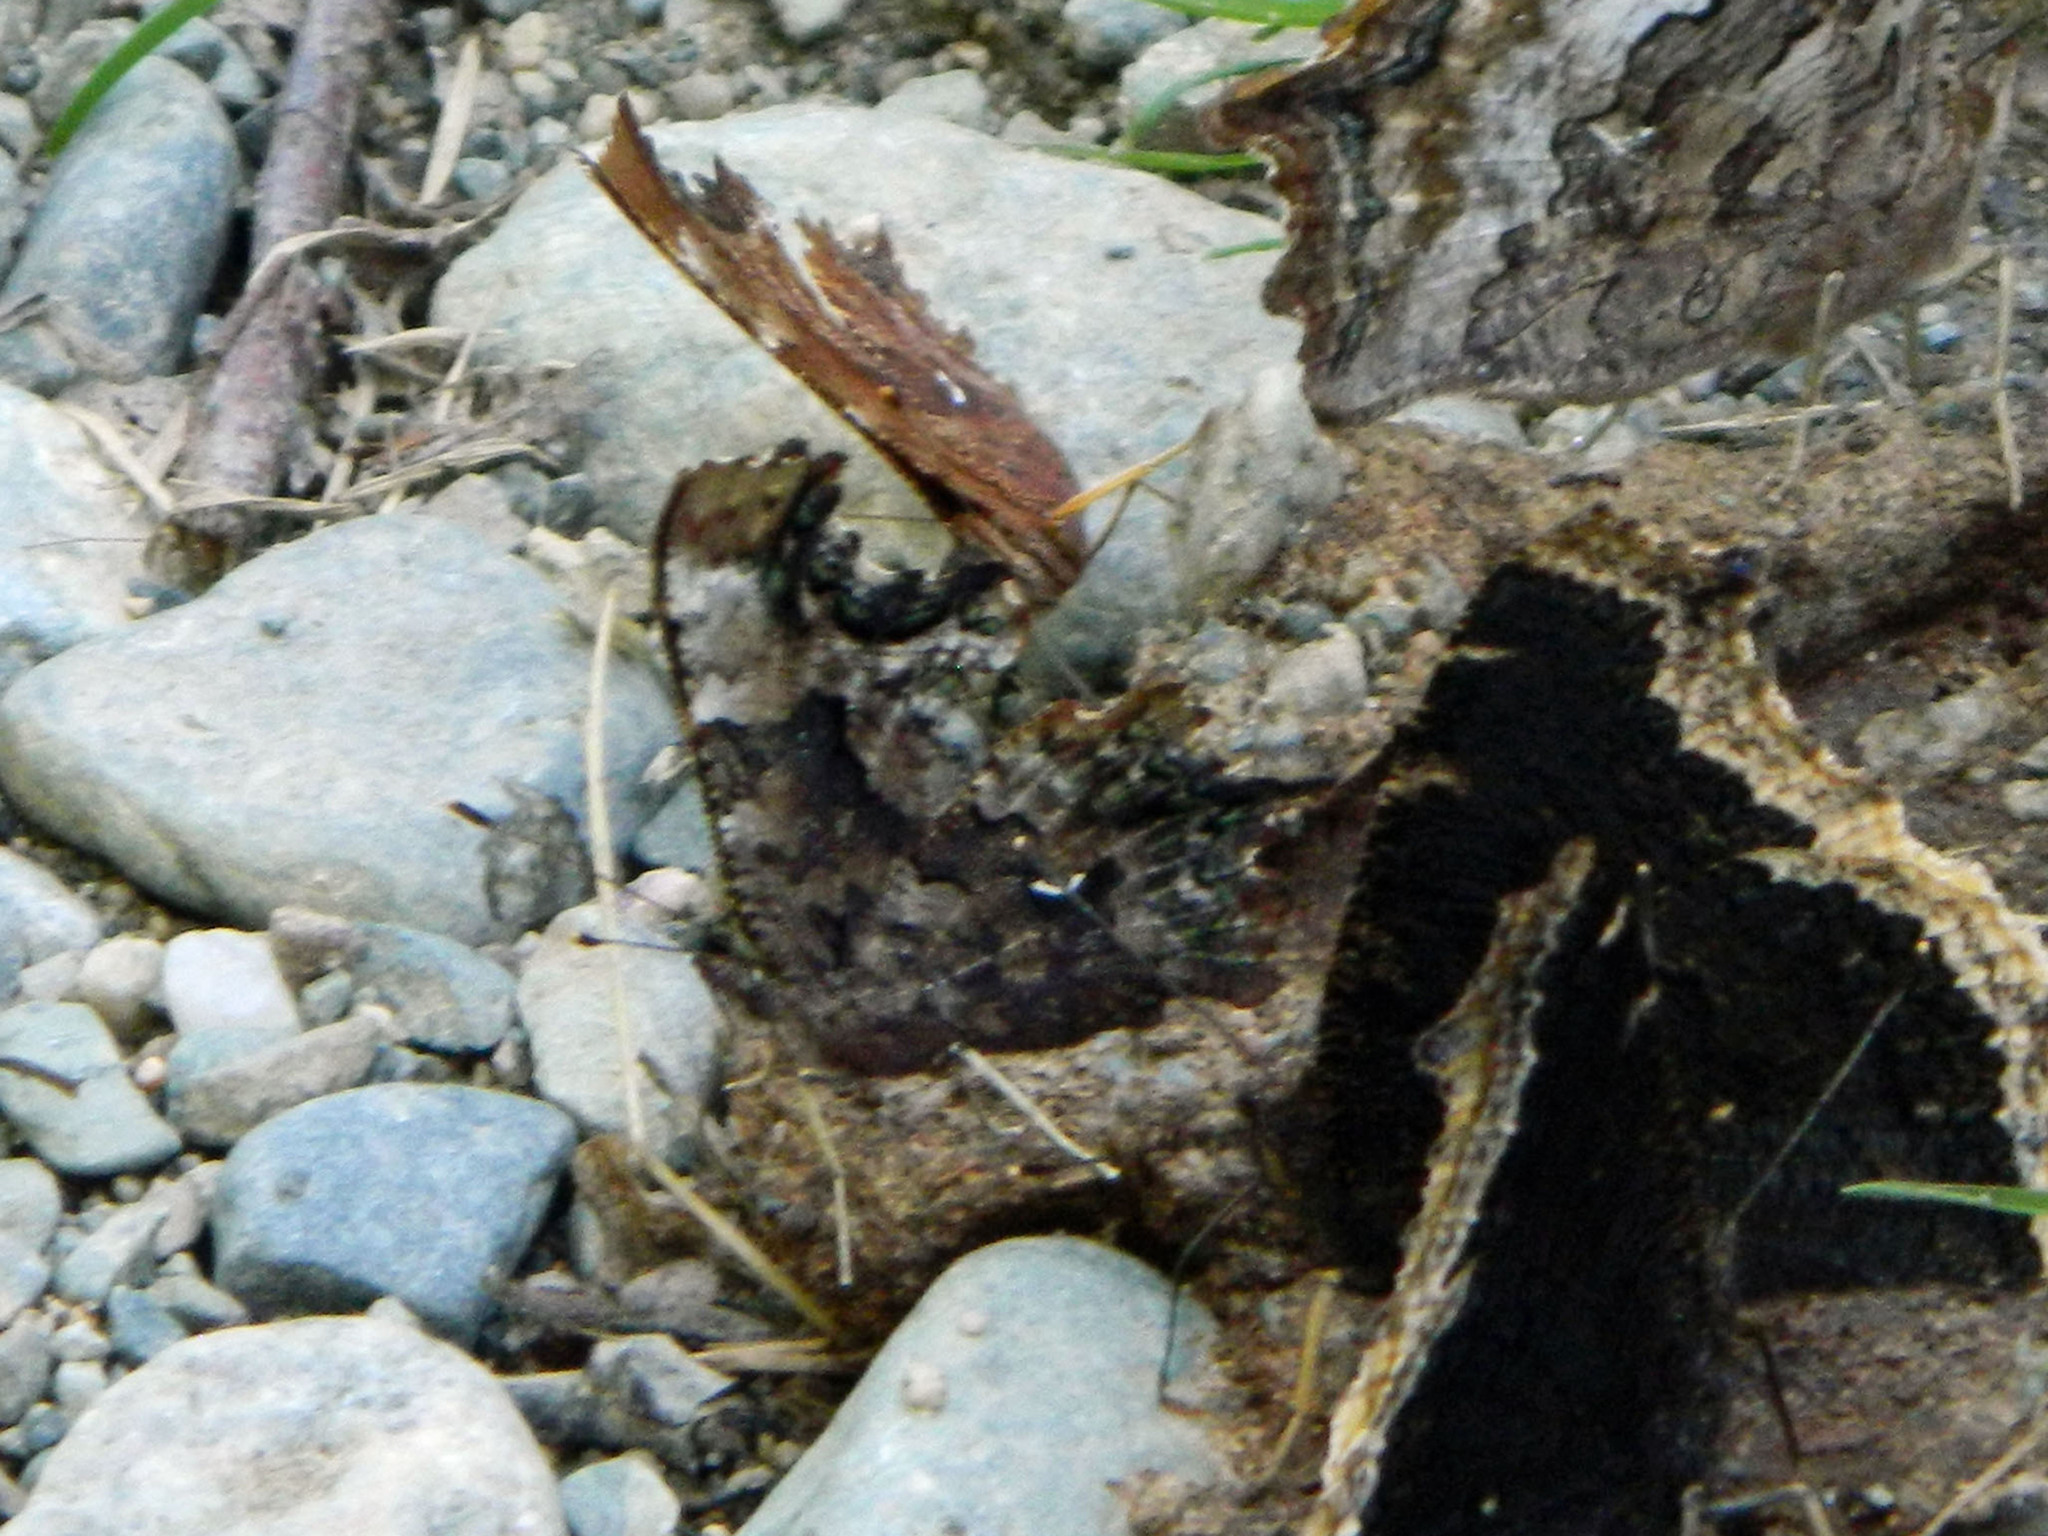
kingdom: Animalia
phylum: Arthropoda
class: Insecta
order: Lepidoptera
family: Nymphalidae
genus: Polygonia
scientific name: Polygonia faunus
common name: Green comma
